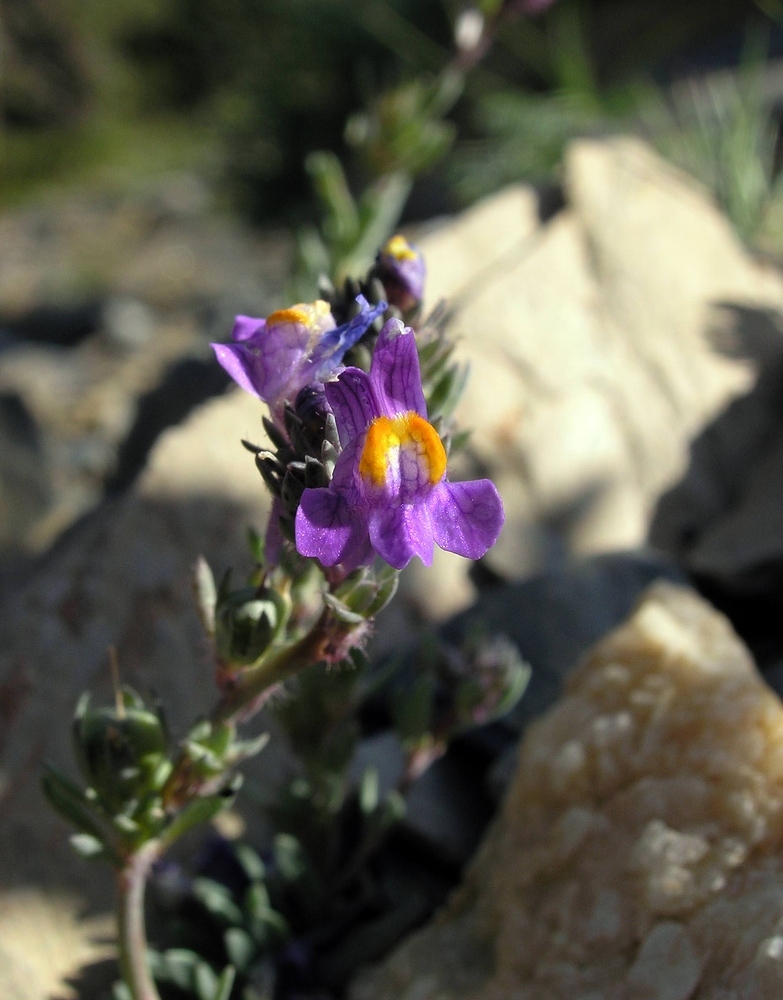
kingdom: Plantae
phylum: Tracheophyta
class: Magnoliopsida
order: Lamiales
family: Plantaginaceae
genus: Linaria
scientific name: Linaria alpina
